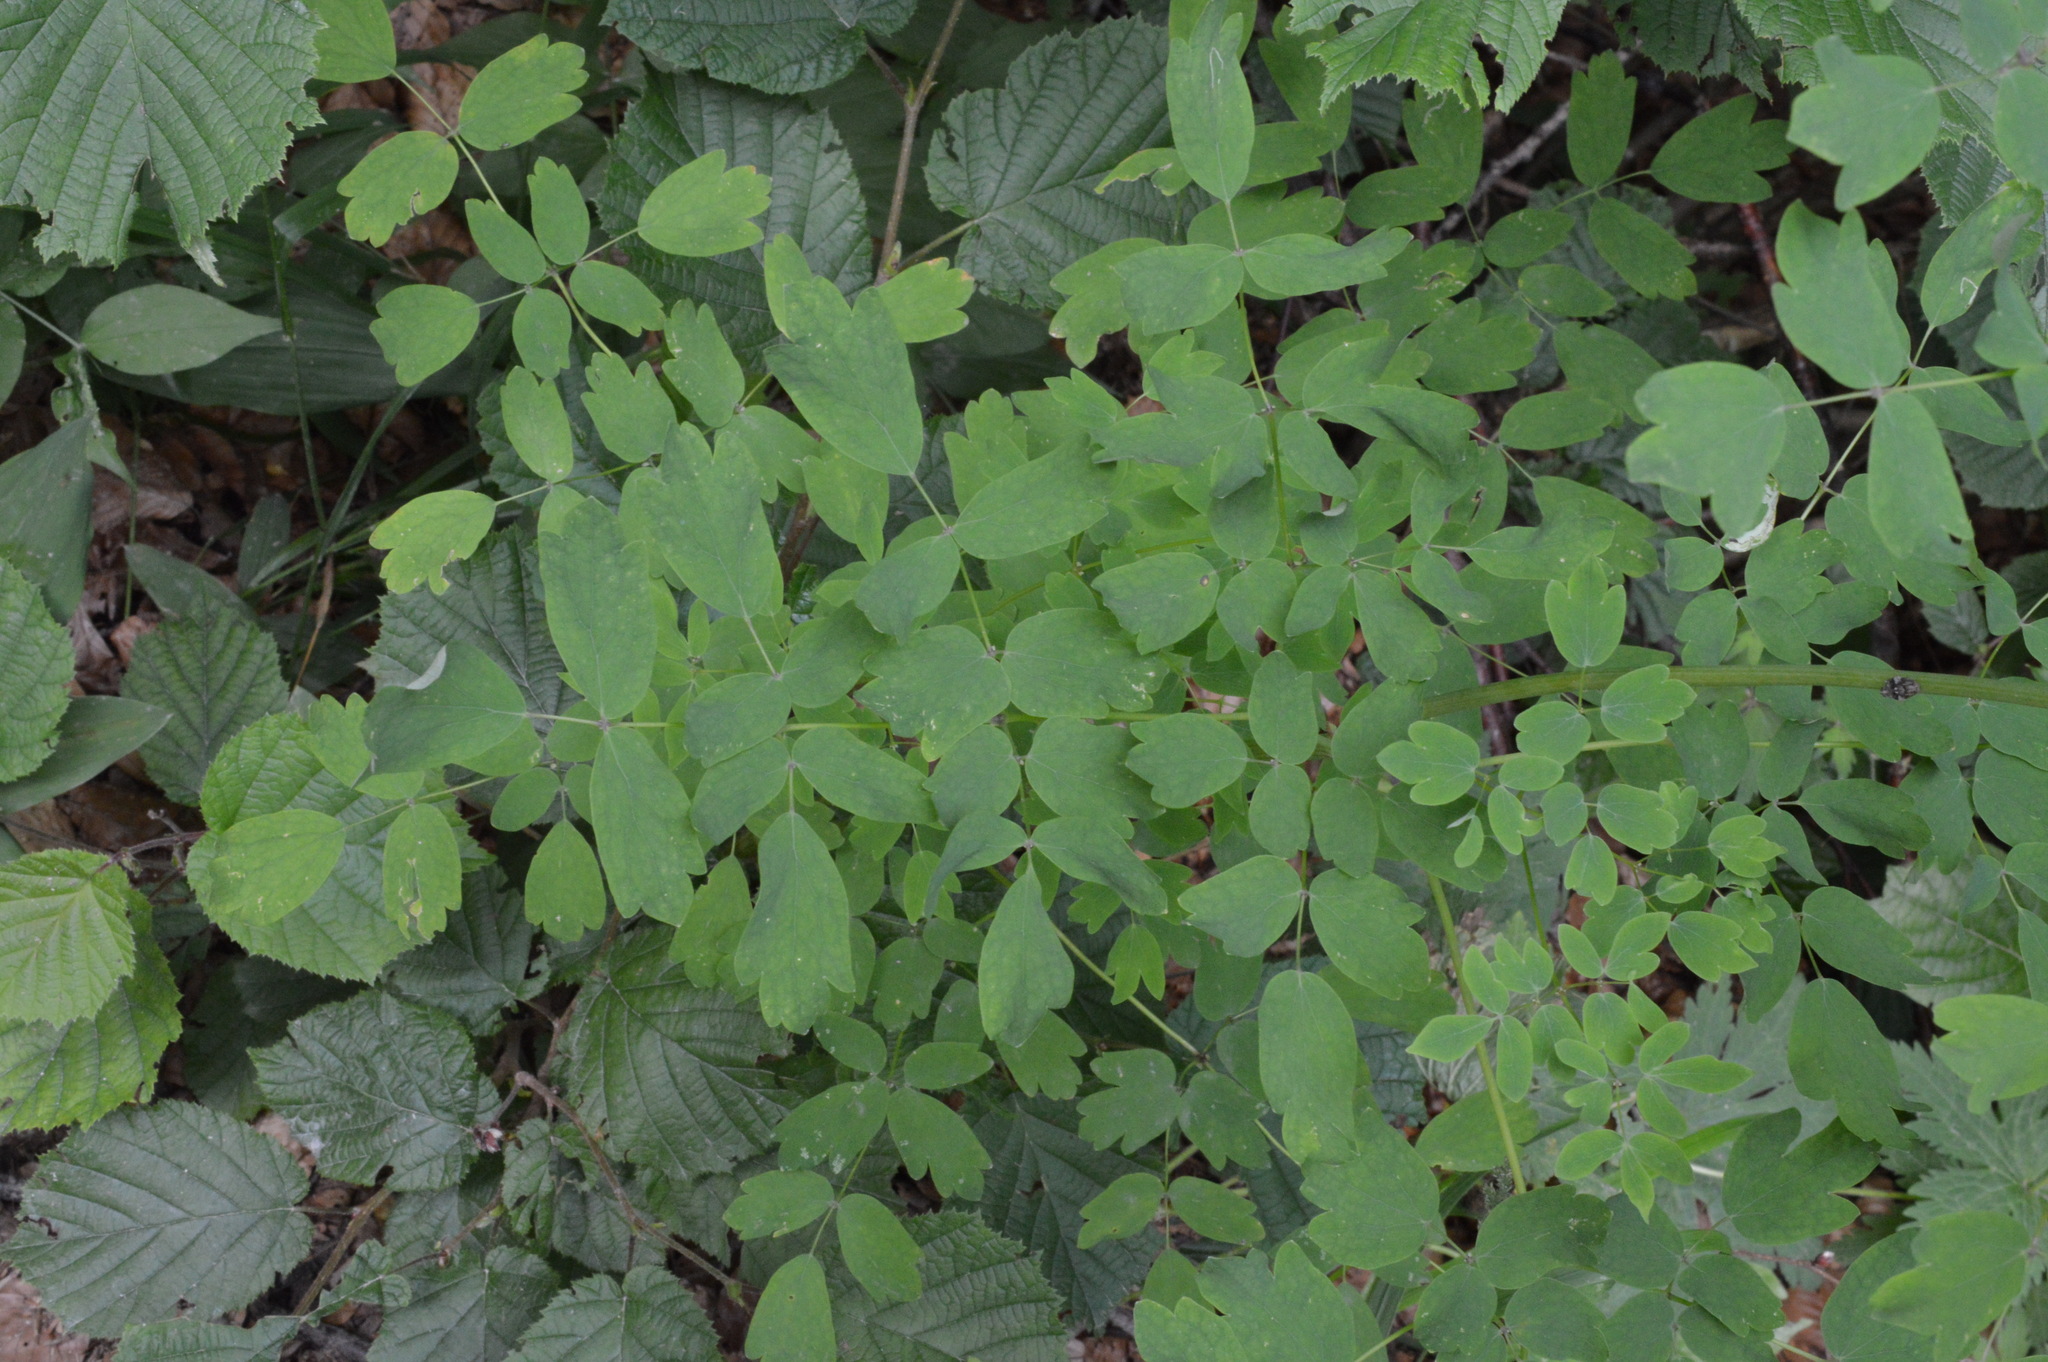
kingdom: Plantae
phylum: Tracheophyta
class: Magnoliopsida
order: Ranunculales
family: Ranunculaceae
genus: Thalictrum
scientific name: Thalictrum aquilegiifolium
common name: French meadow-rue
